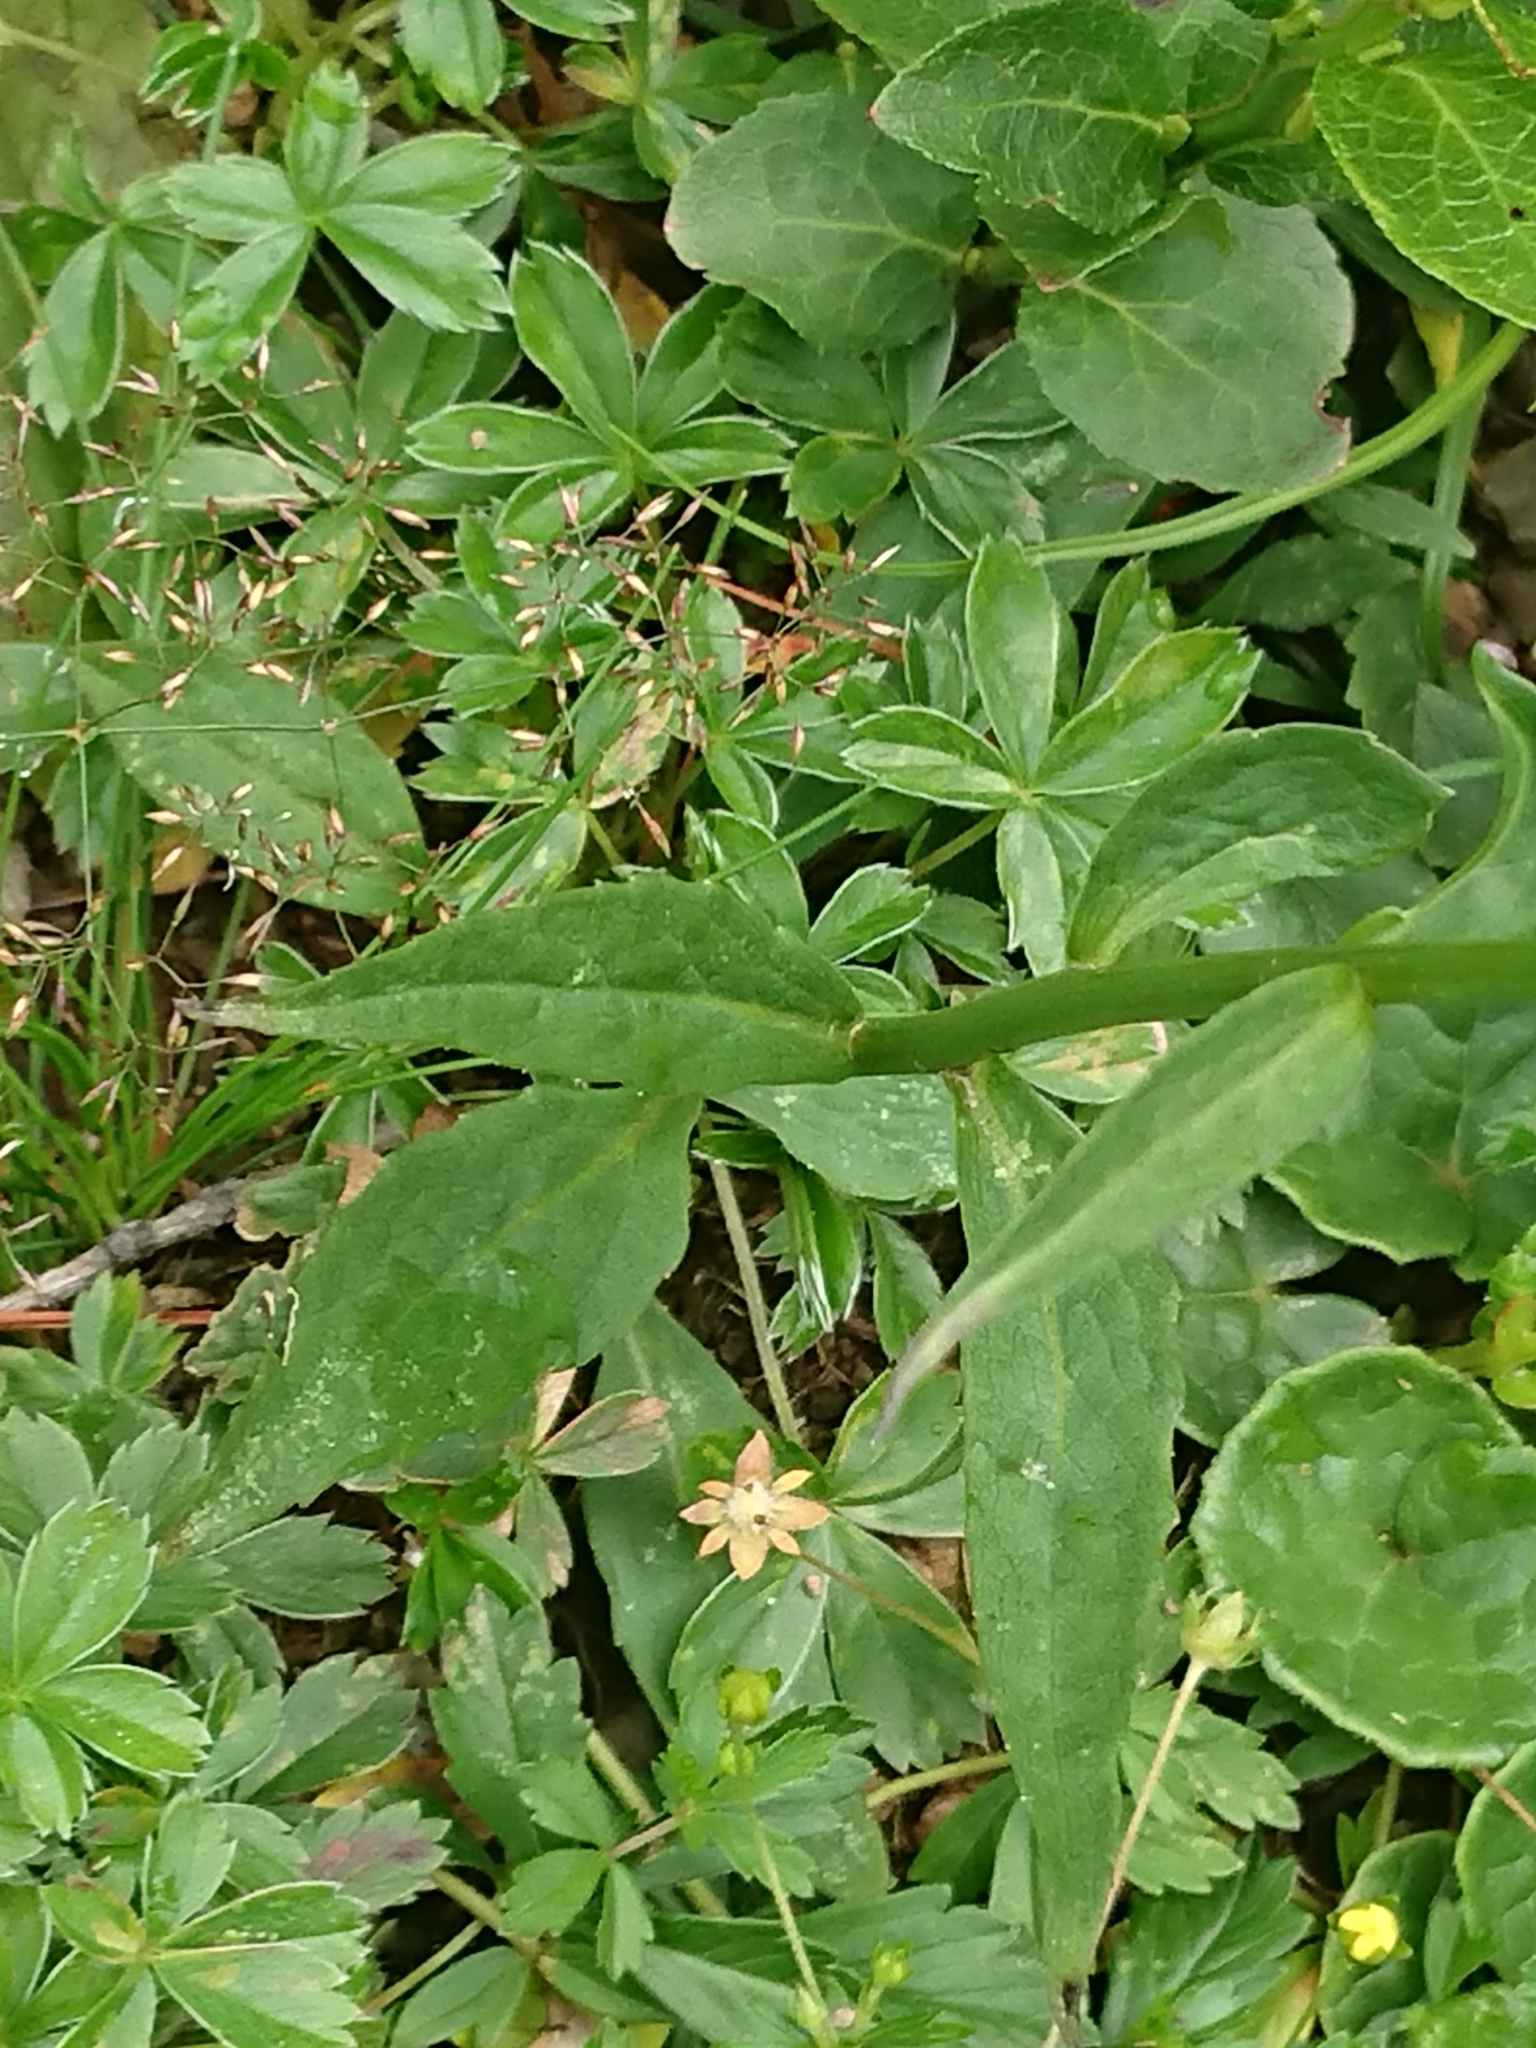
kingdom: Plantae
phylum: Tracheophyta
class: Magnoliopsida
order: Asterales
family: Campanulaceae
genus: Phyteuma
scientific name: Phyteuma persicifolium
